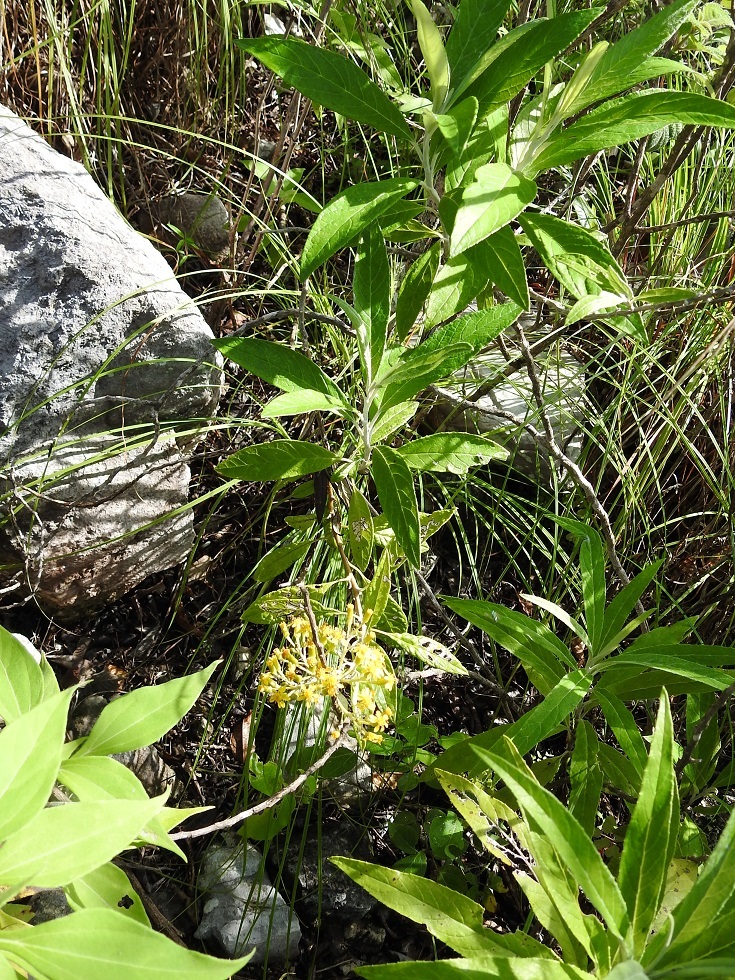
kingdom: Plantae
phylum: Tracheophyta
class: Magnoliopsida
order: Asterales
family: Asteraceae
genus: Zemisia
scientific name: Zemisia thomasii
